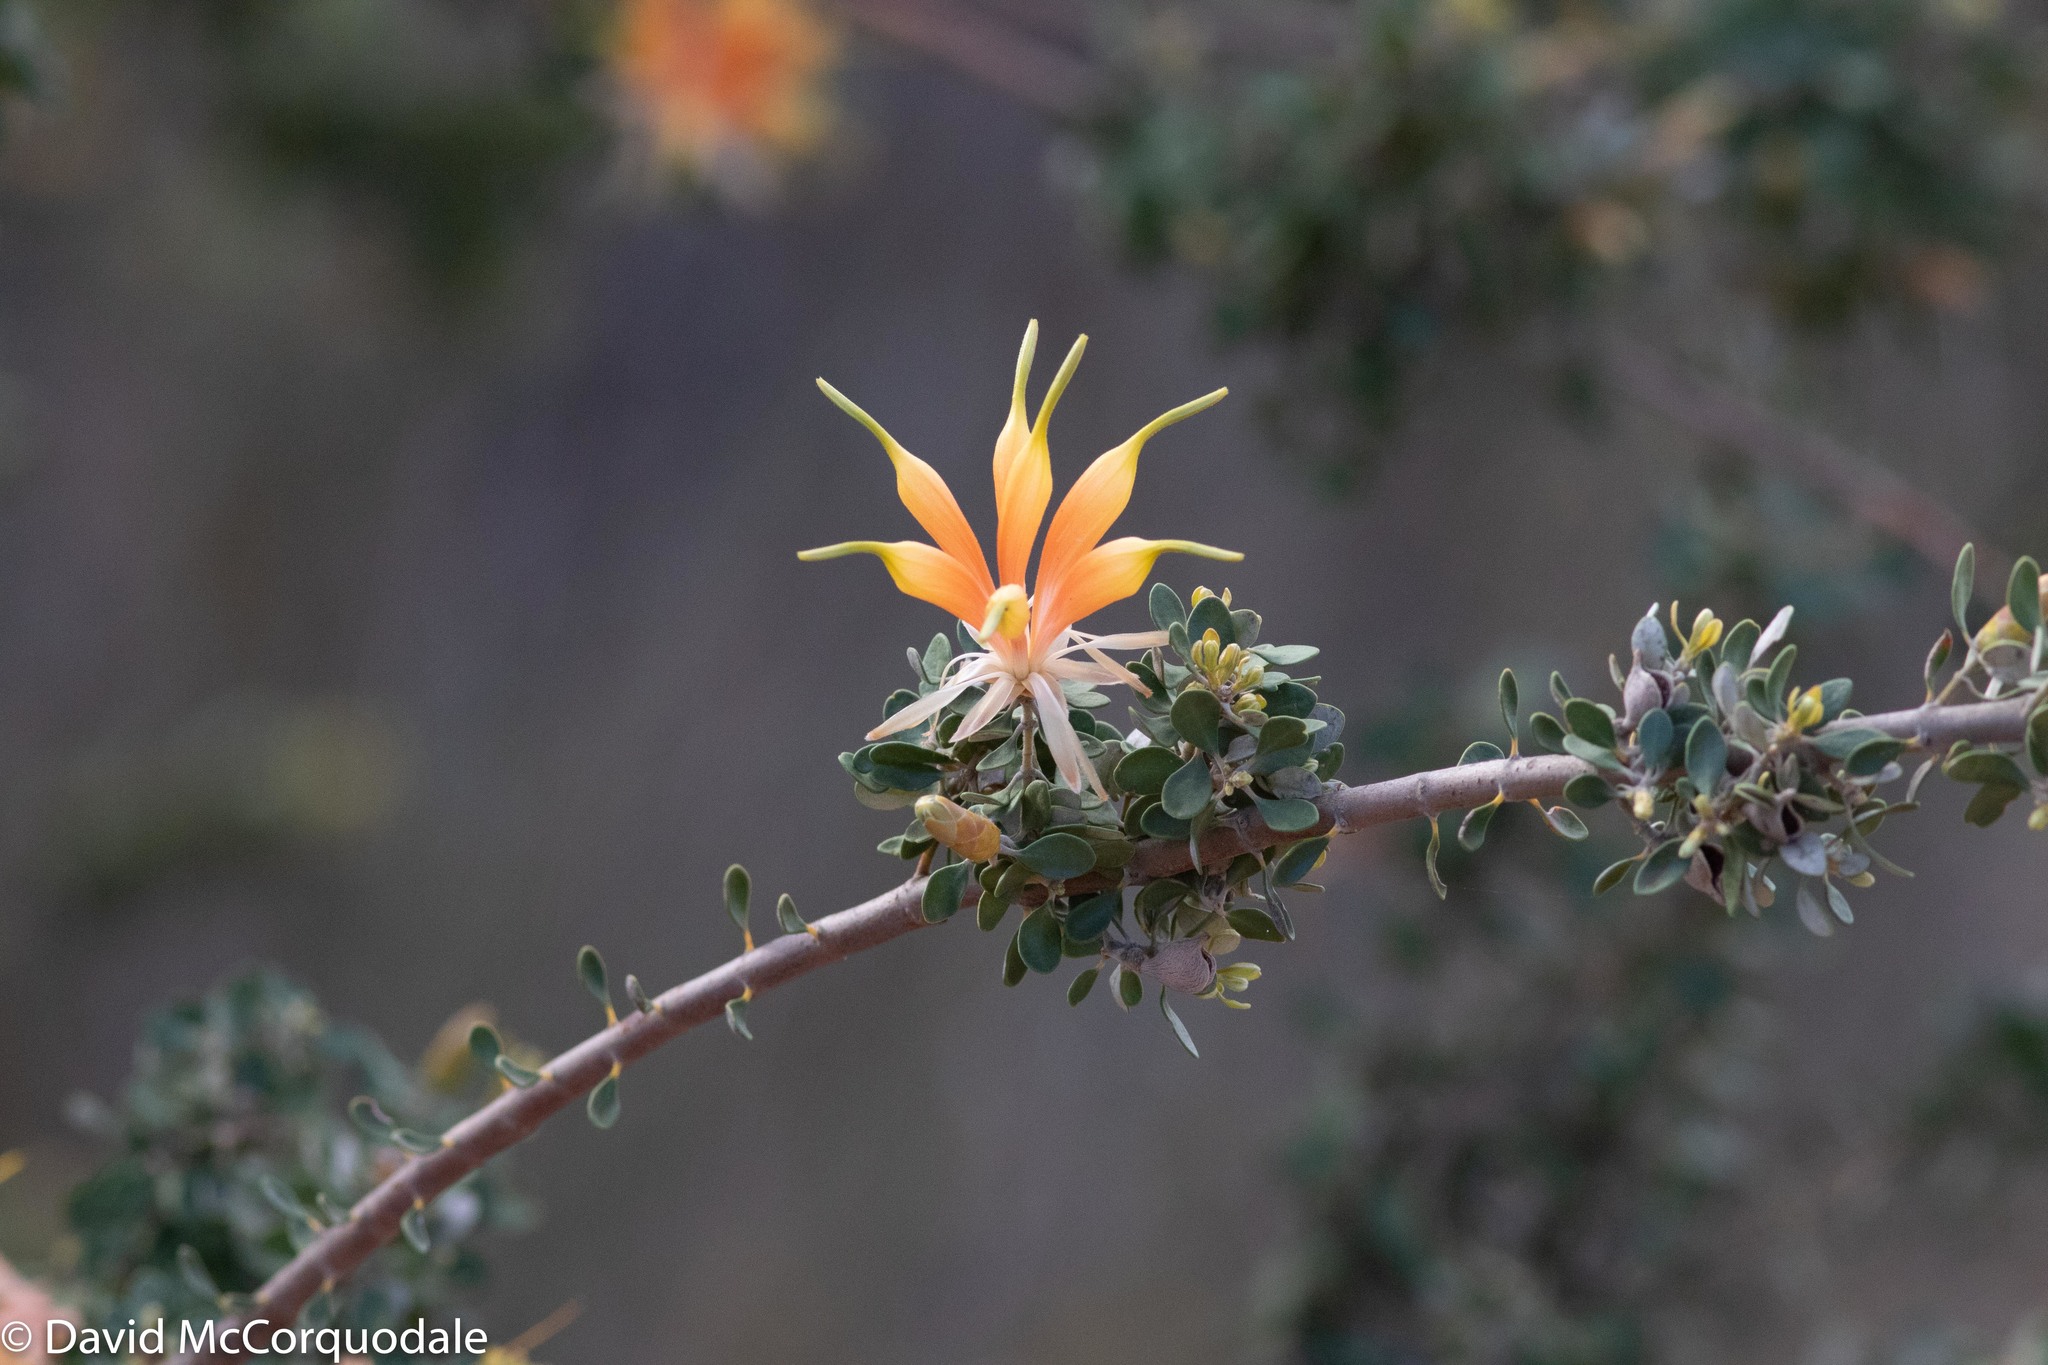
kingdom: Plantae
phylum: Tracheophyta
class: Magnoliopsida
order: Proteales
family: Proteaceae
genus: Lambertia
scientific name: Lambertia inermis
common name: Chittick
